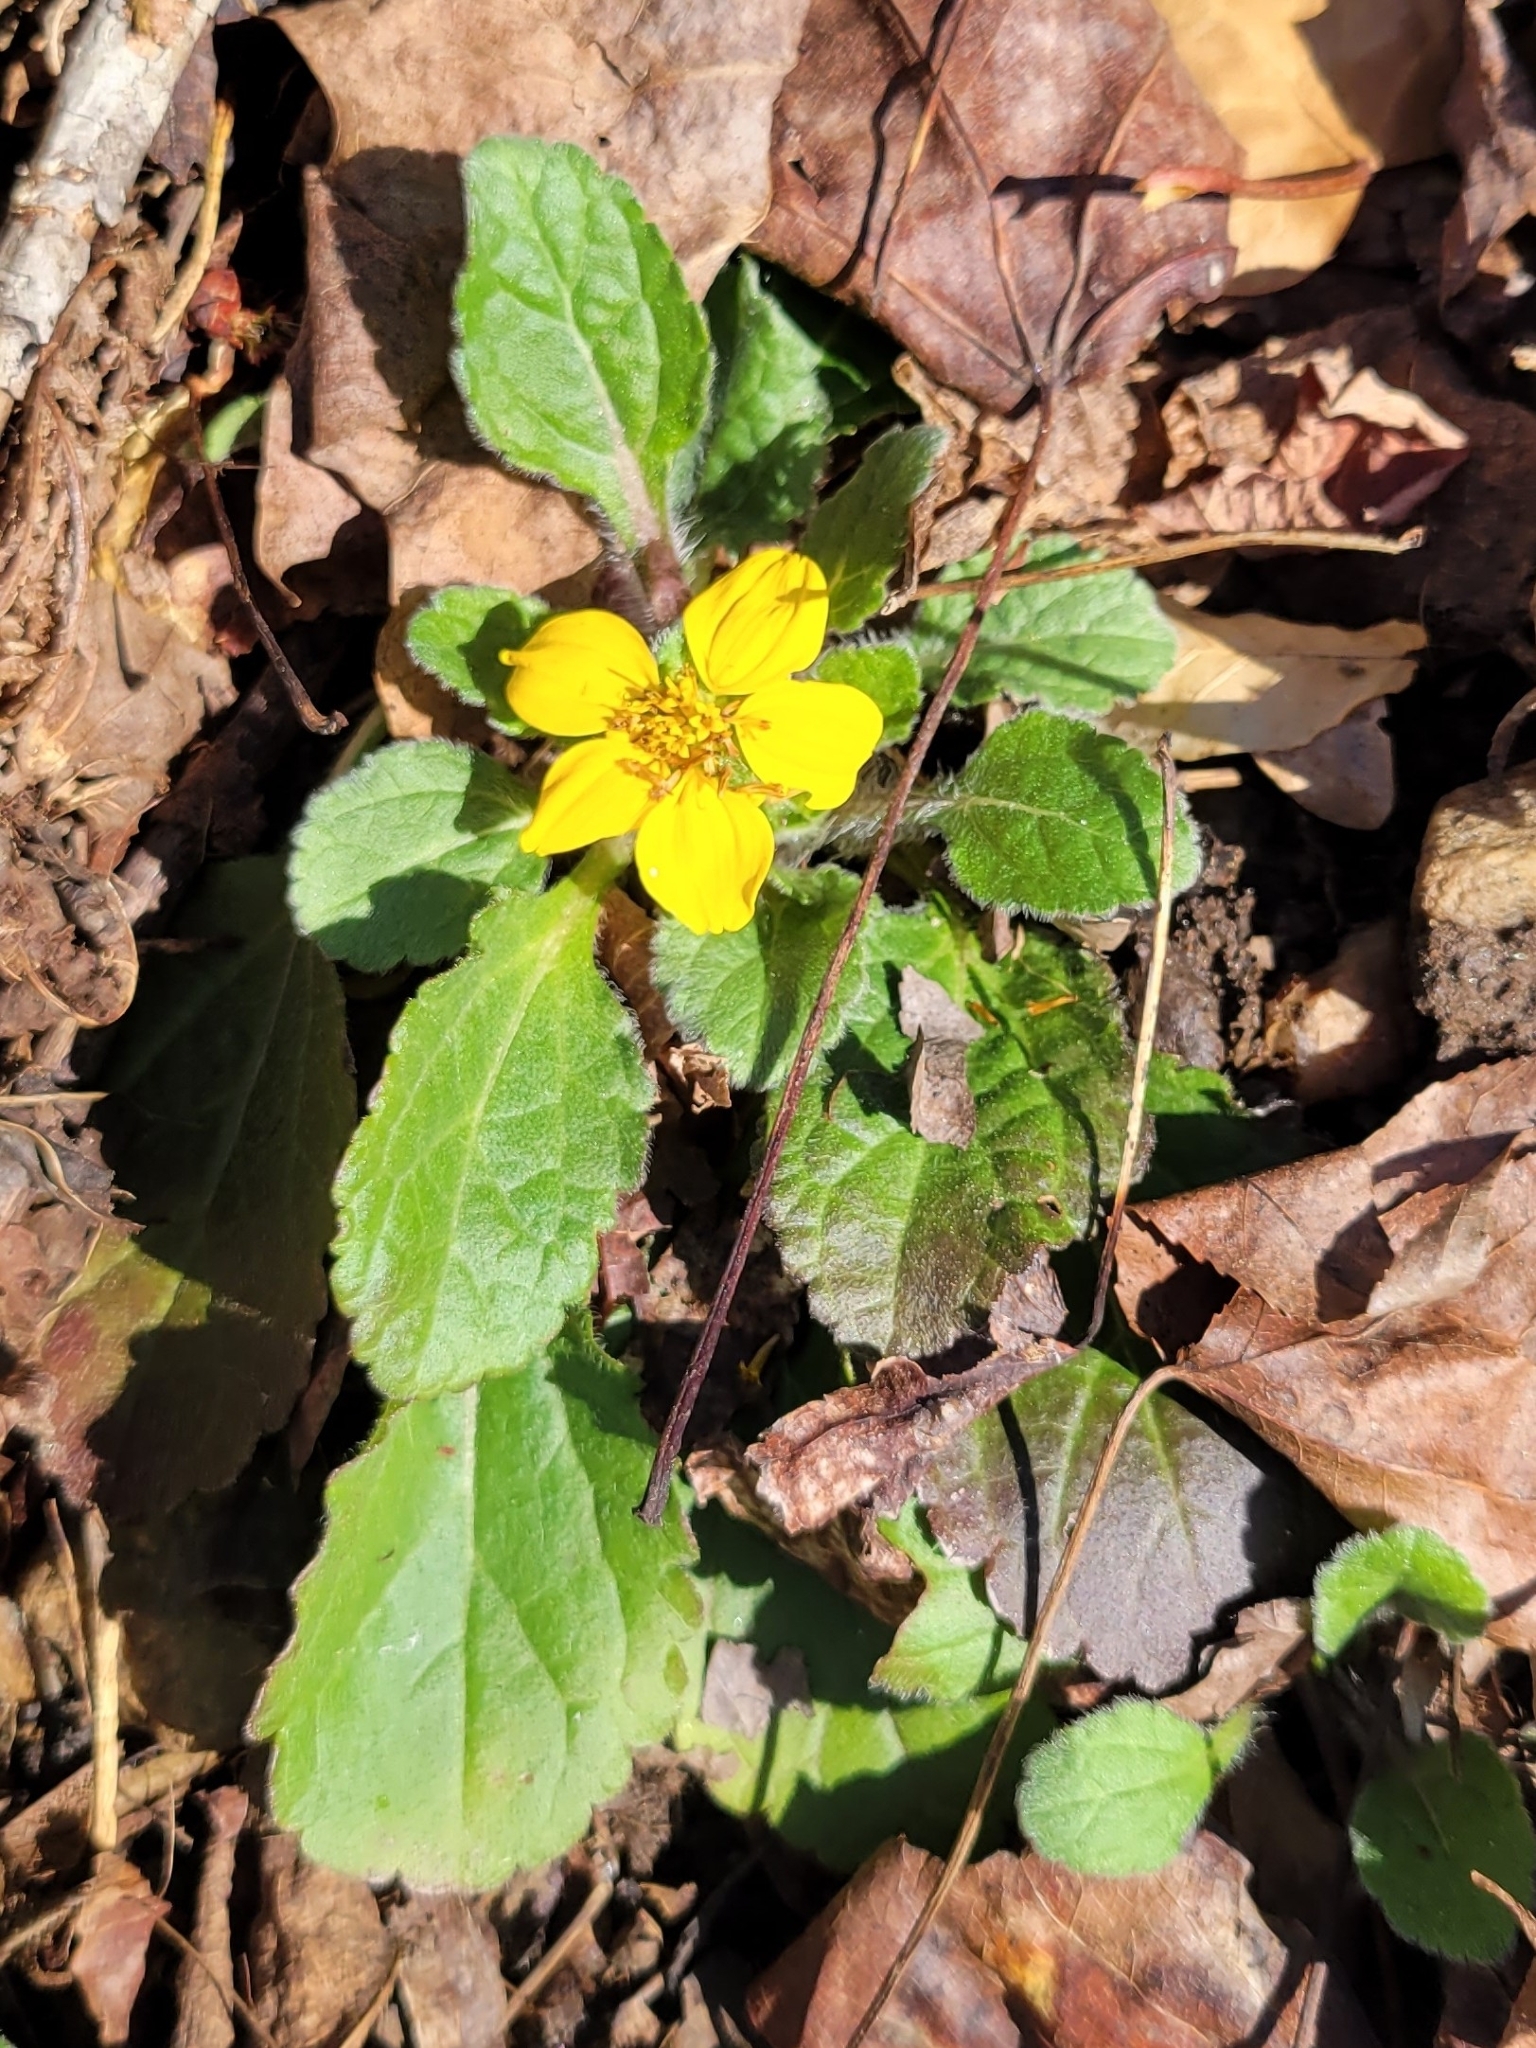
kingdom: Plantae
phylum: Tracheophyta
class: Magnoliopsida
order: Asterales
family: Asteraceae
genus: Chrysogonum
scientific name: Chrysogonum virginianum
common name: Golden-knee
